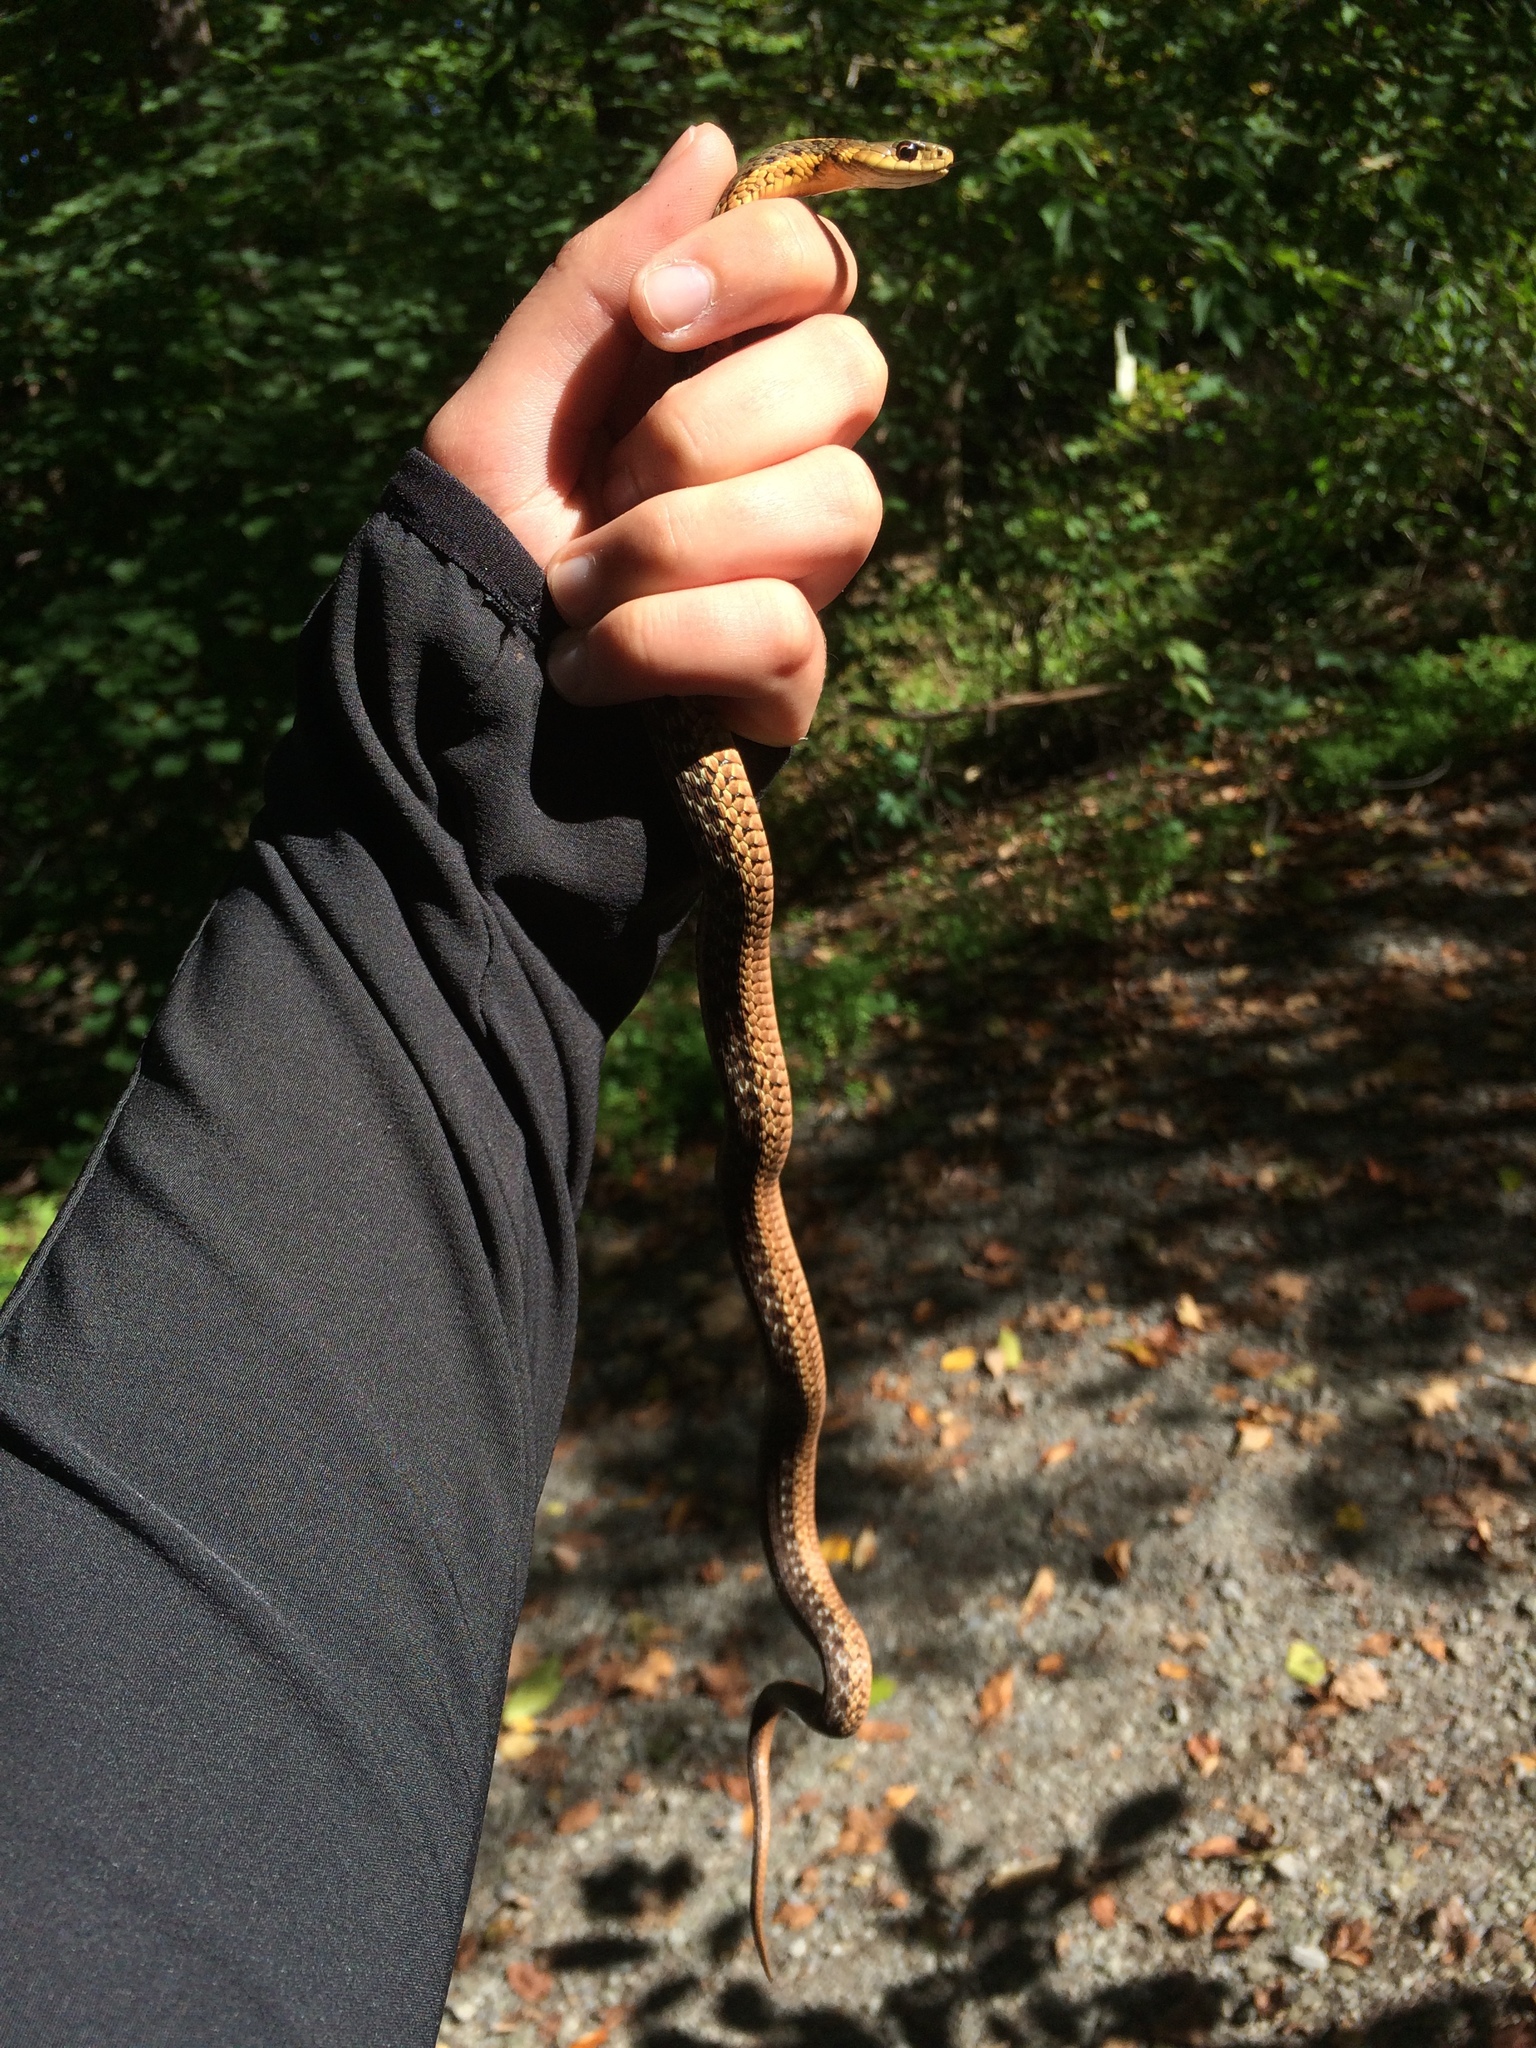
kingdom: Animalia
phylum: Chordata
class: Squamata
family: Colubridae
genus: Thamnophis
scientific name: Thamnophis sirtalis
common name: Common garter snake
